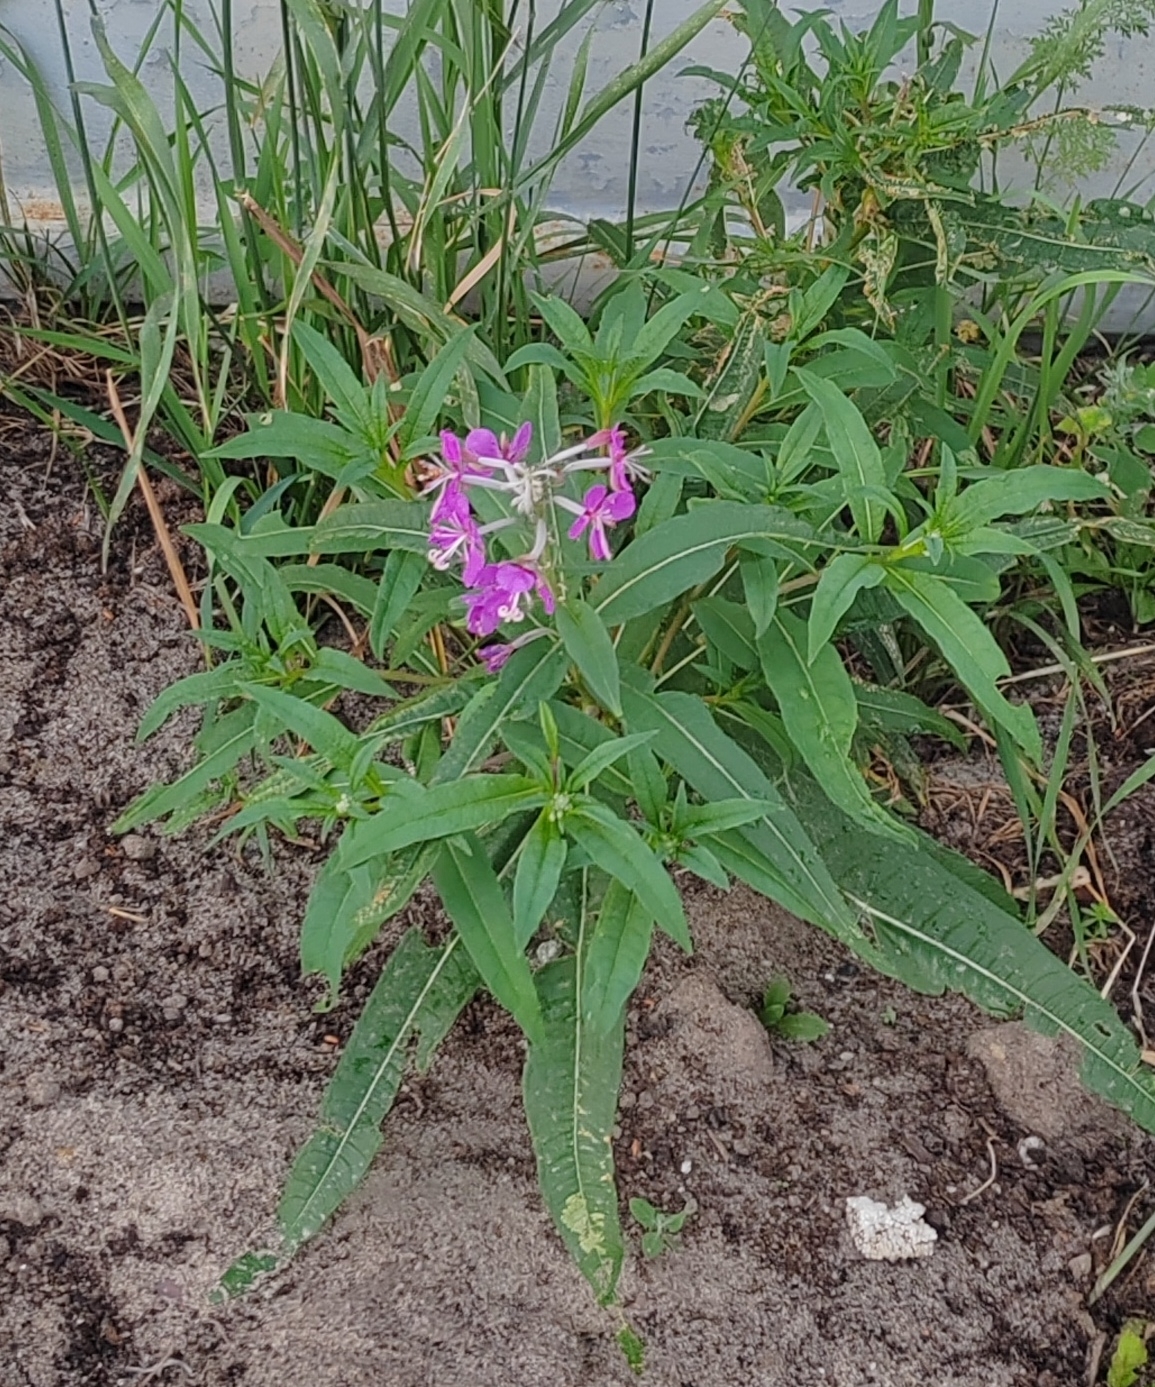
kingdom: Plantae
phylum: Tracheophyta
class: Magnoliopsida
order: Myrtales
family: Onagraceae
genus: Chamaenerion
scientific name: Chamaenerion angustifolium
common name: Fireweed
